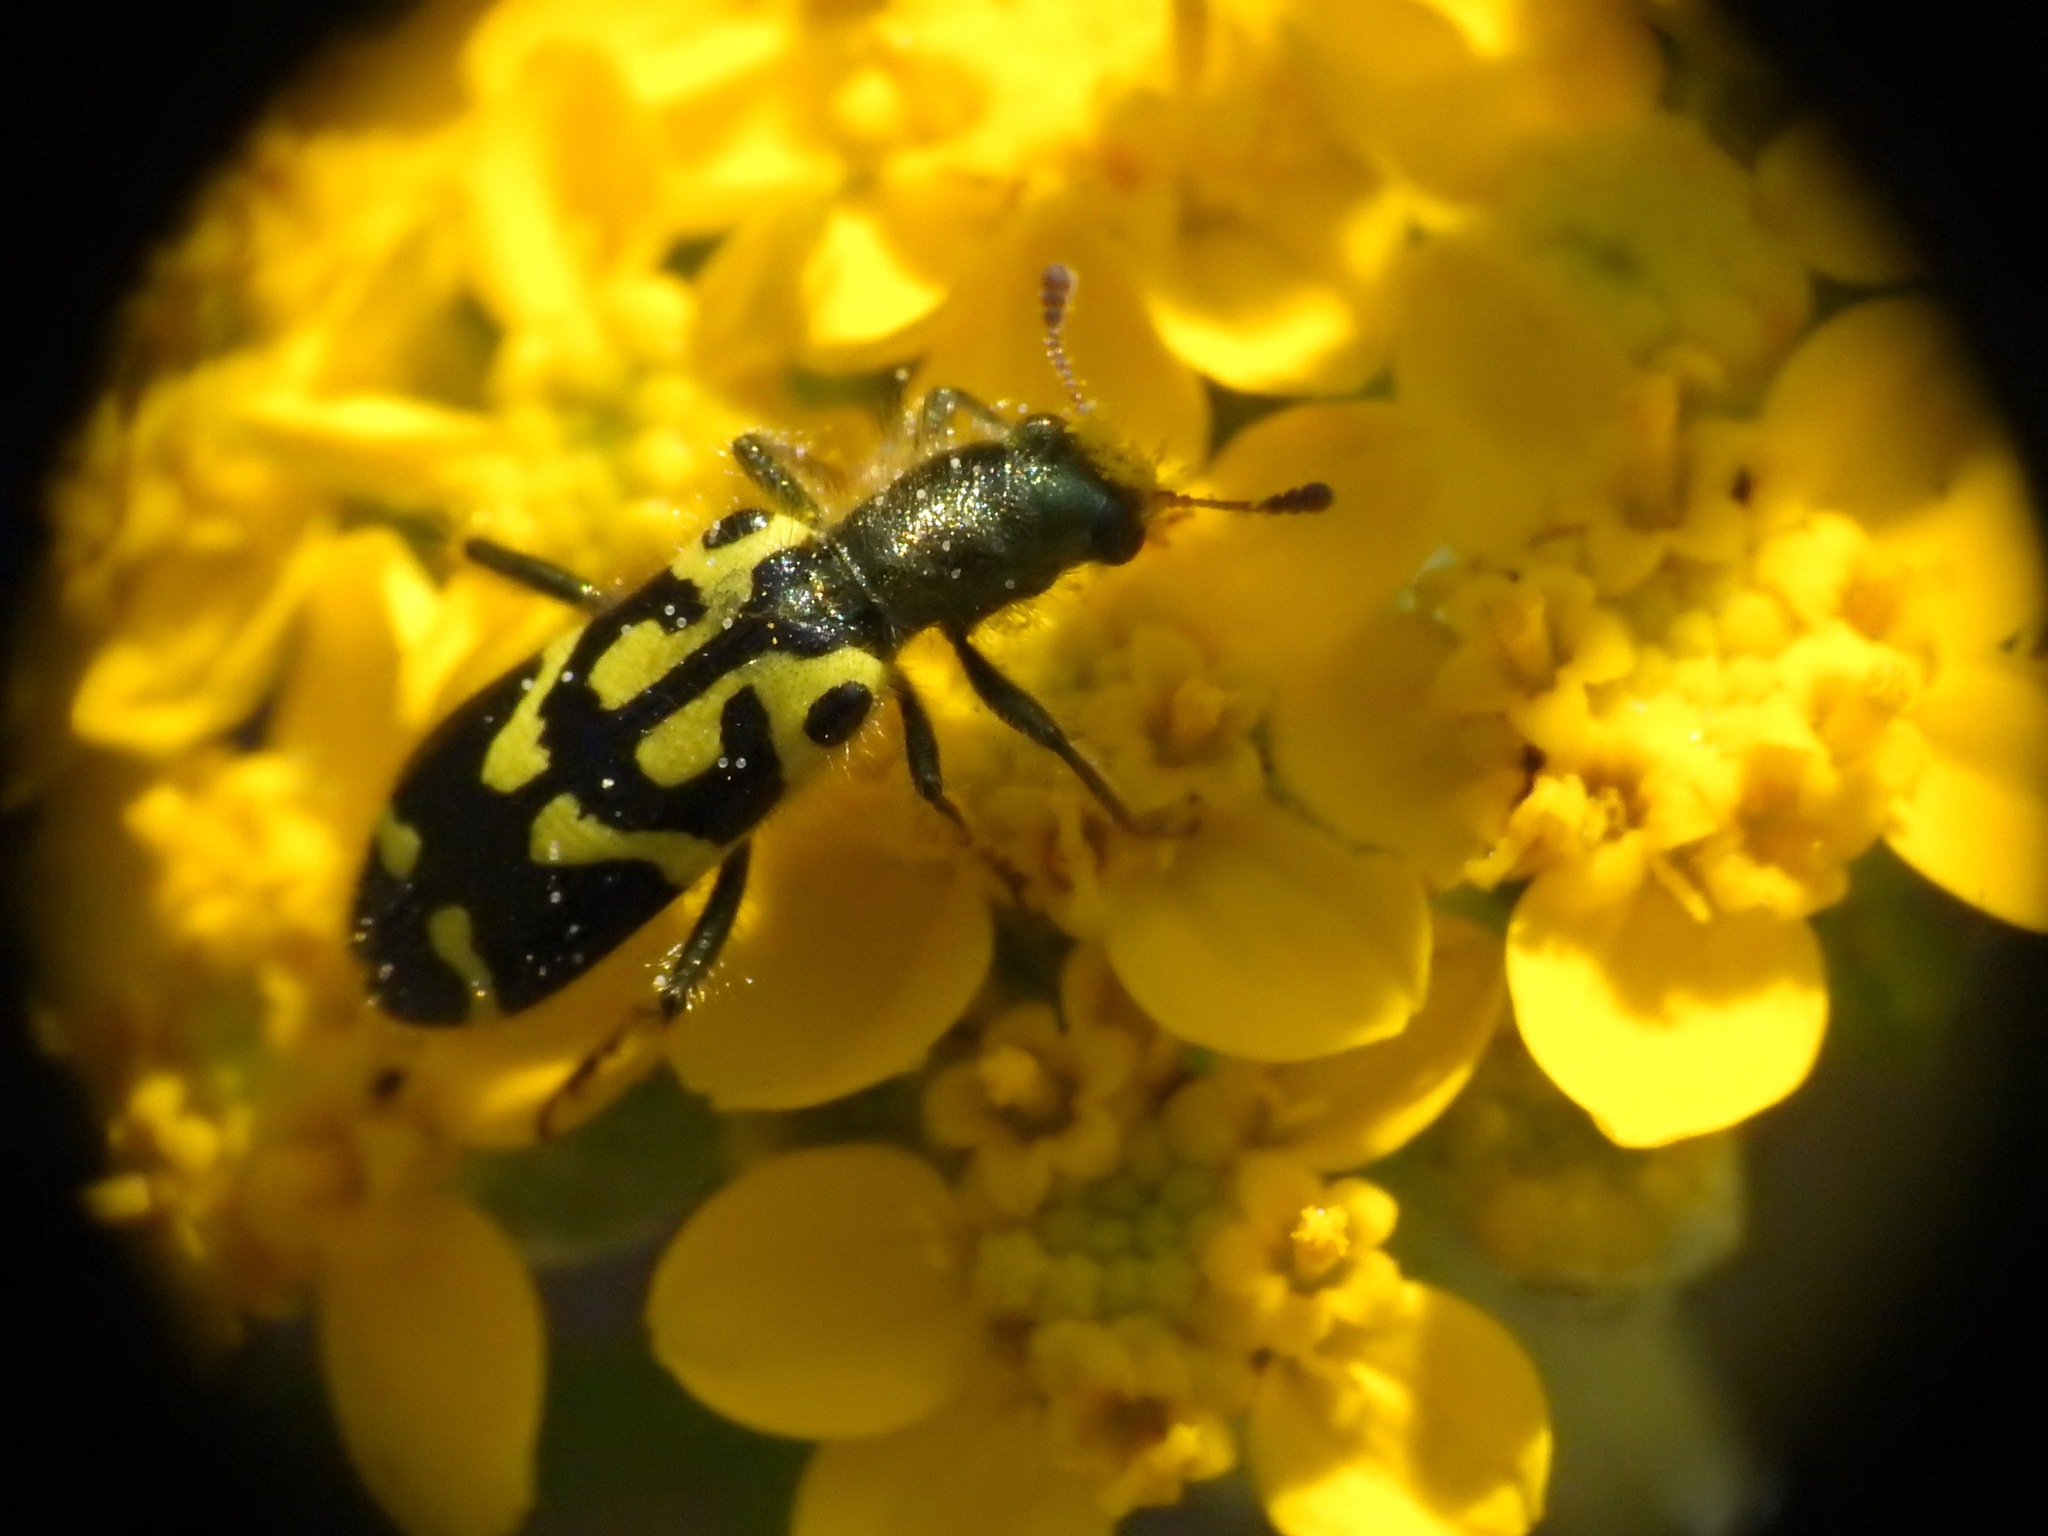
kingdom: Animalia
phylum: Arthropoda
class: Insecta
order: Coleoptera
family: Cleridae
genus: Trichodes
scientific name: Trichodes ornatus
